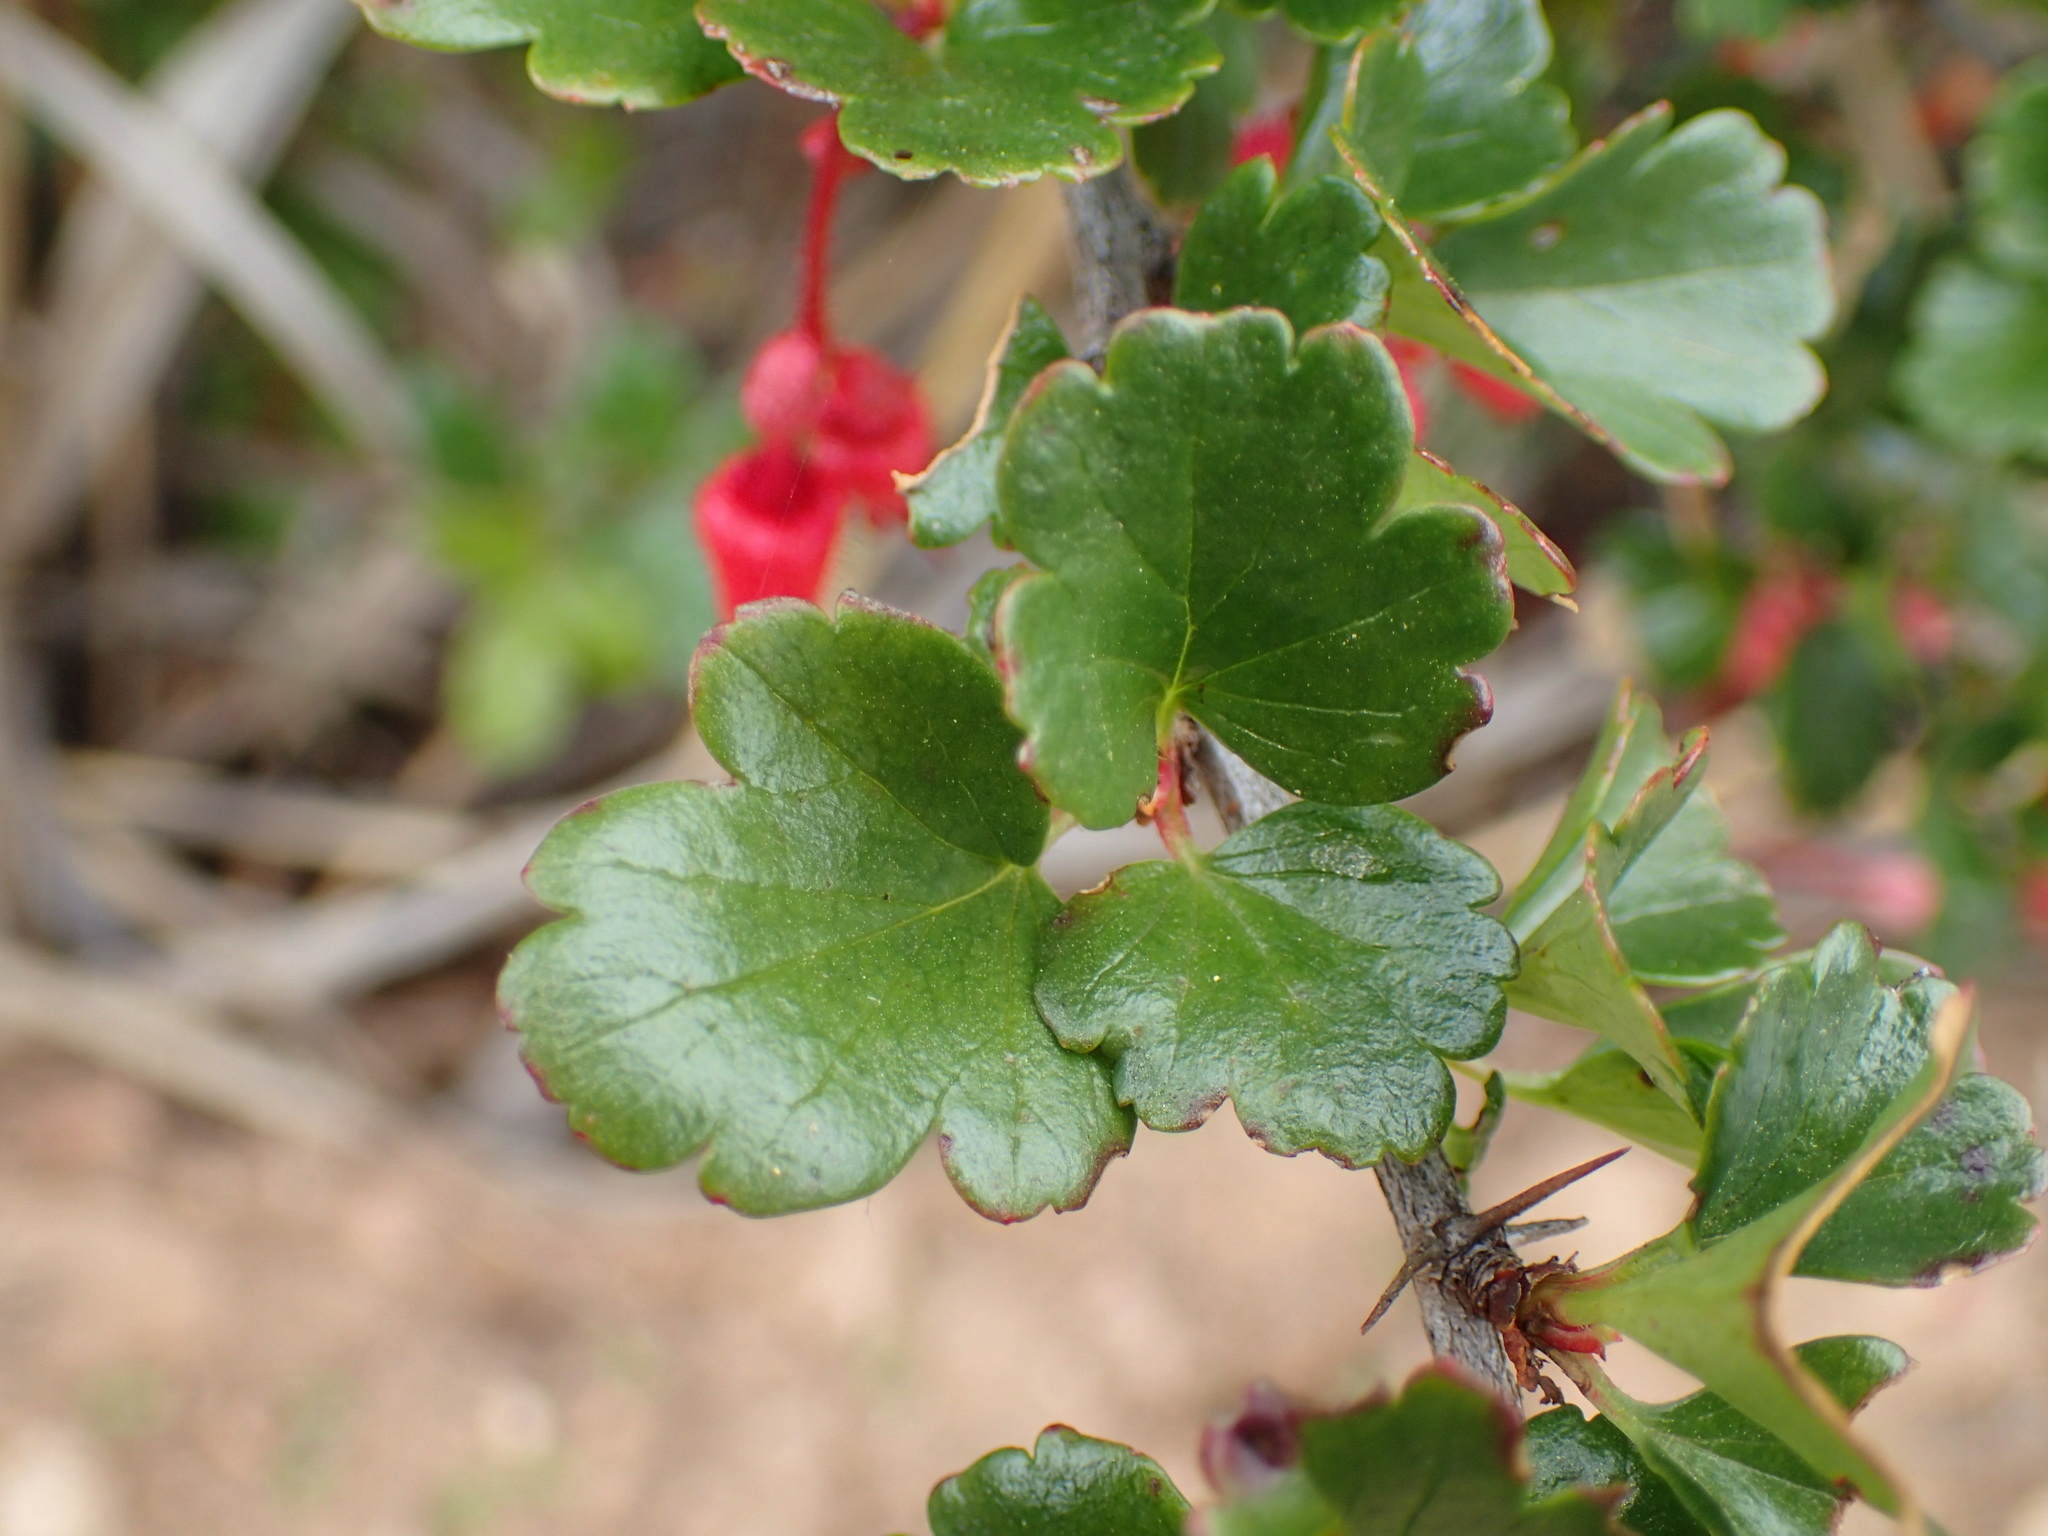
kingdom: Plantae
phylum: Tracheophyta
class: Magnoliopsida
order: Saxifragales
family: Grossulariaceae
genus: Ribes
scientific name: Ribes speciosum
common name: Fuchsia-flower gooseberry
